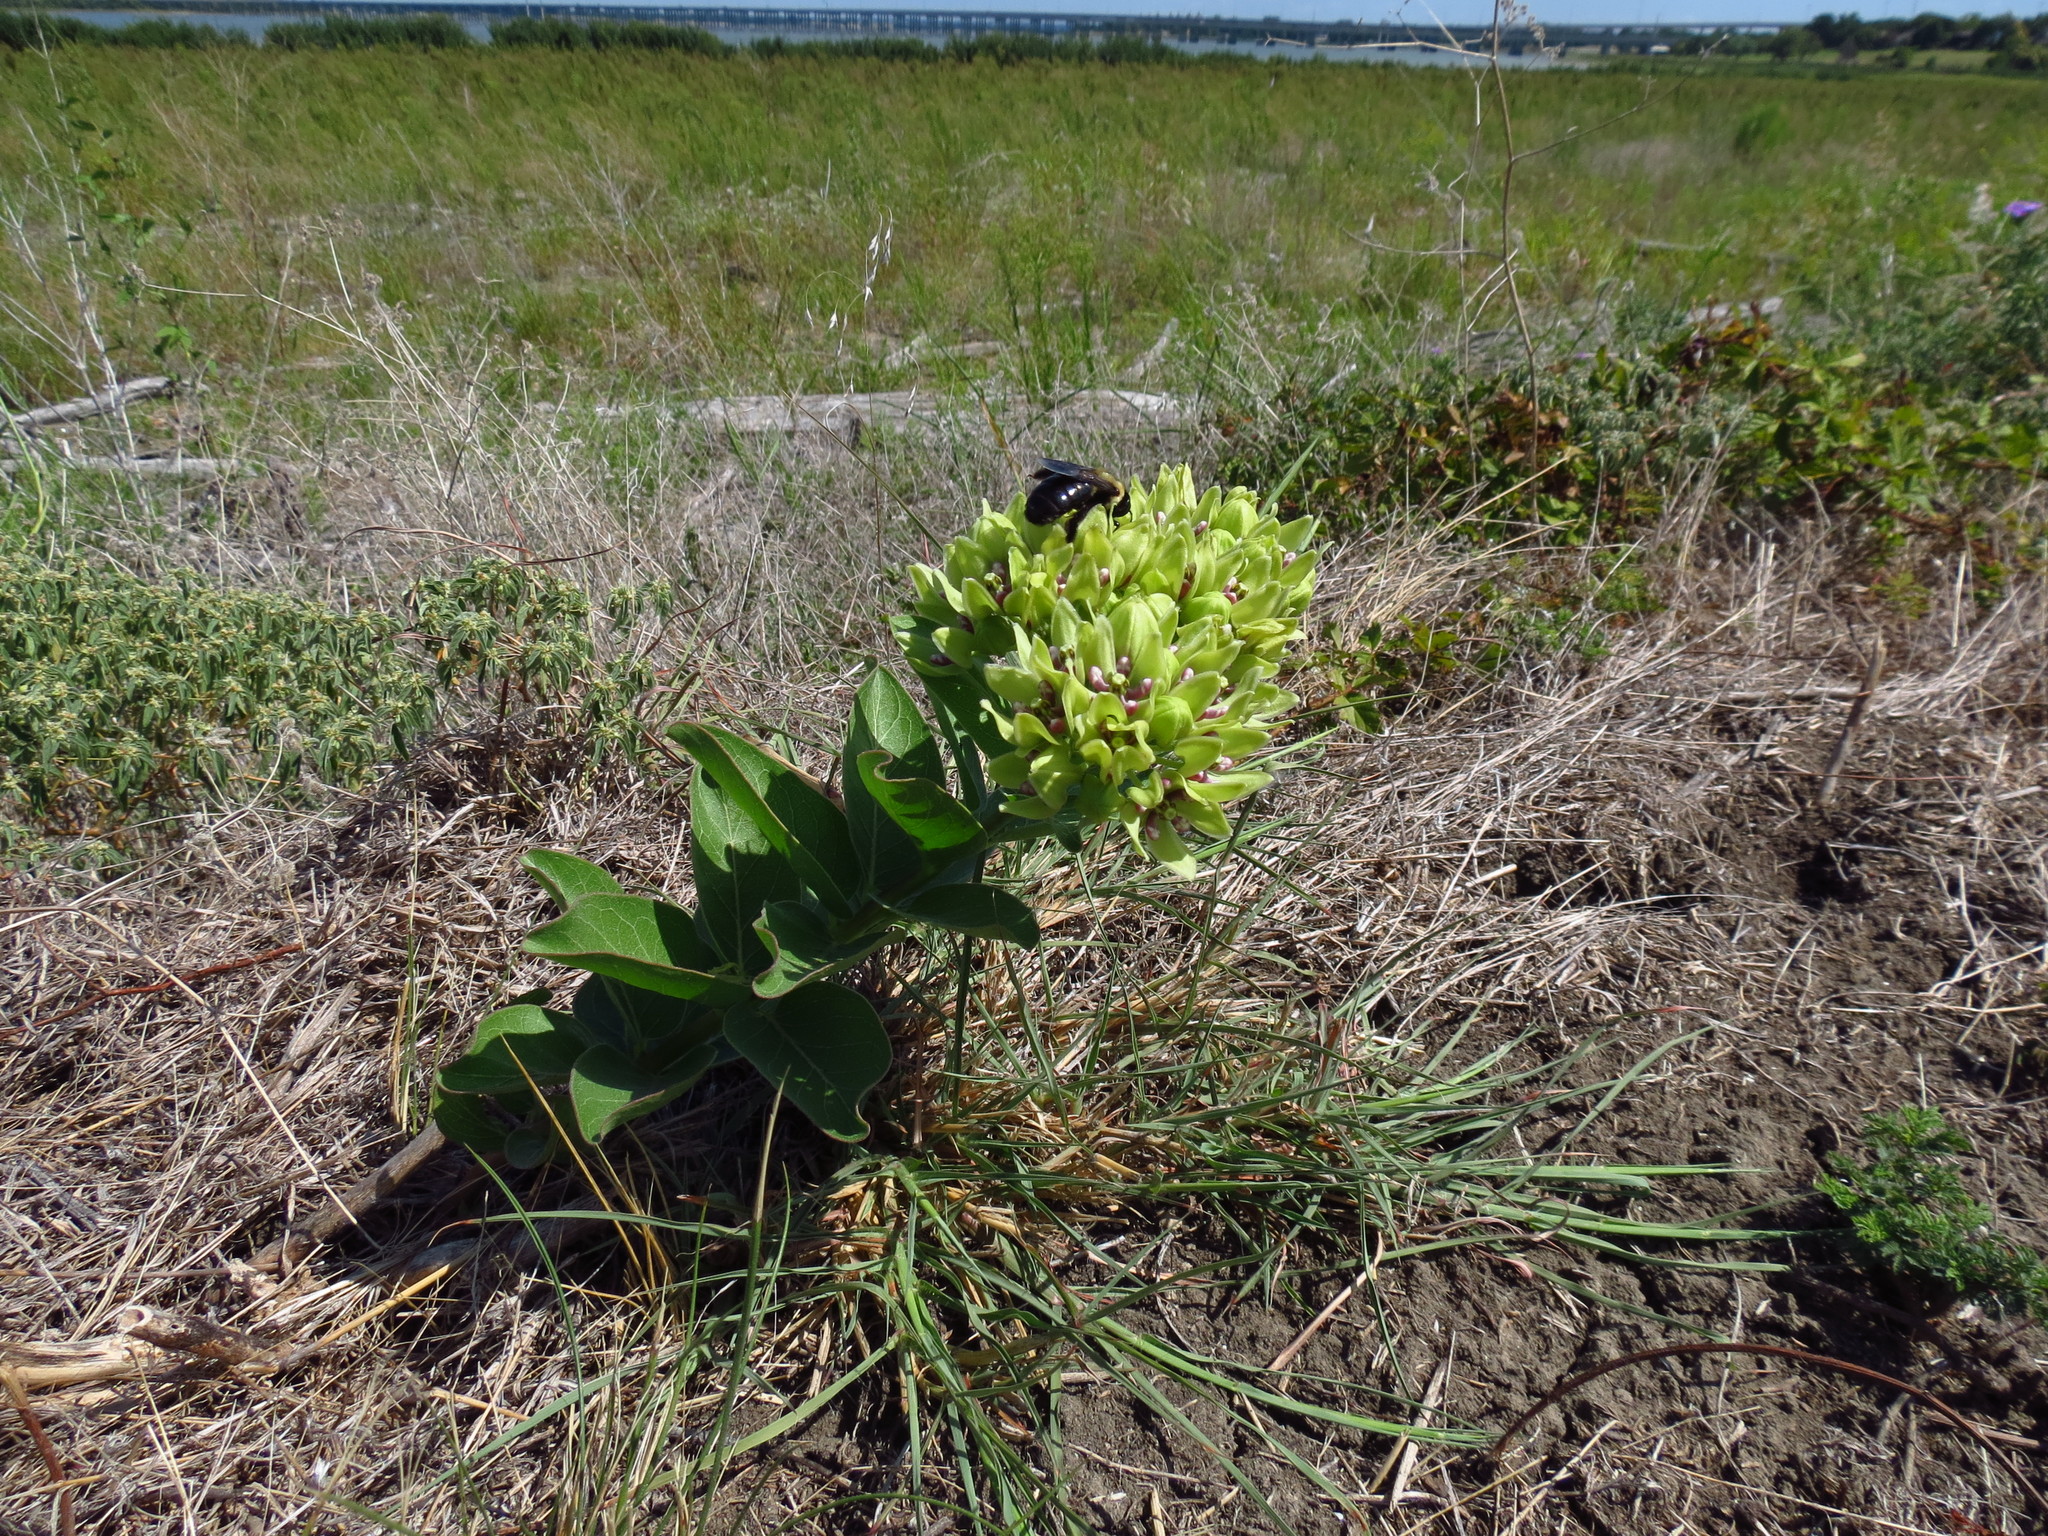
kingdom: Plantae
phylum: Tracheophyta
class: Magnoliopsida
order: Gentianales
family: Apocynaceae
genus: Asclepias
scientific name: Asclepias viridis
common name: Antelope-horns
